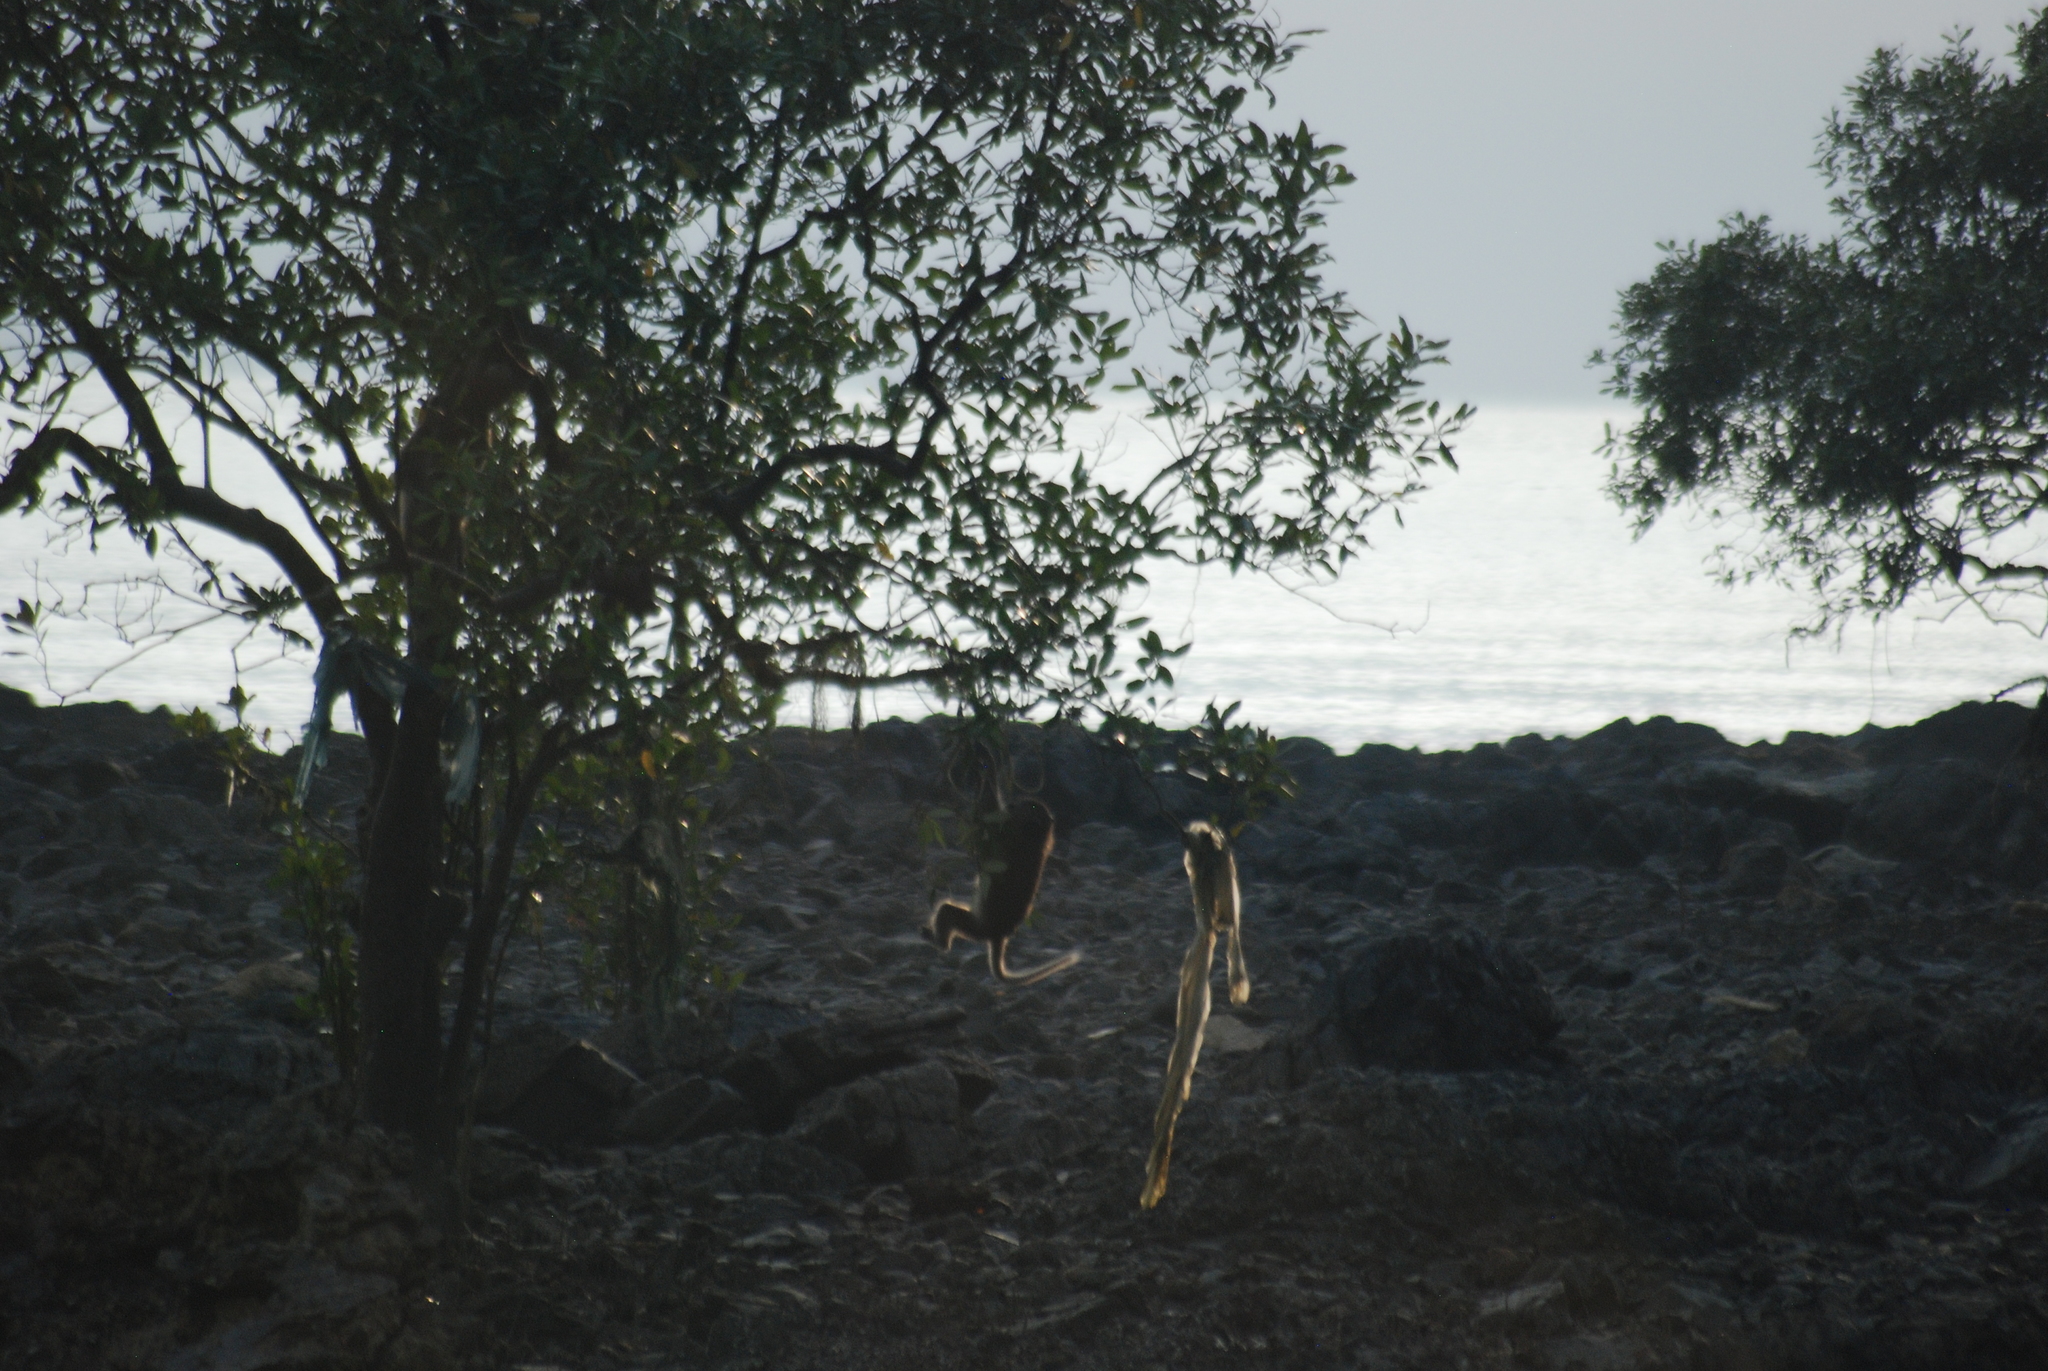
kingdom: Animalia
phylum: Chordata
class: Mammalia
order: Primates
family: Cercopithecidae
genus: Macaca
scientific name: Macaca fascicularis
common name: Crab-eating macaque
